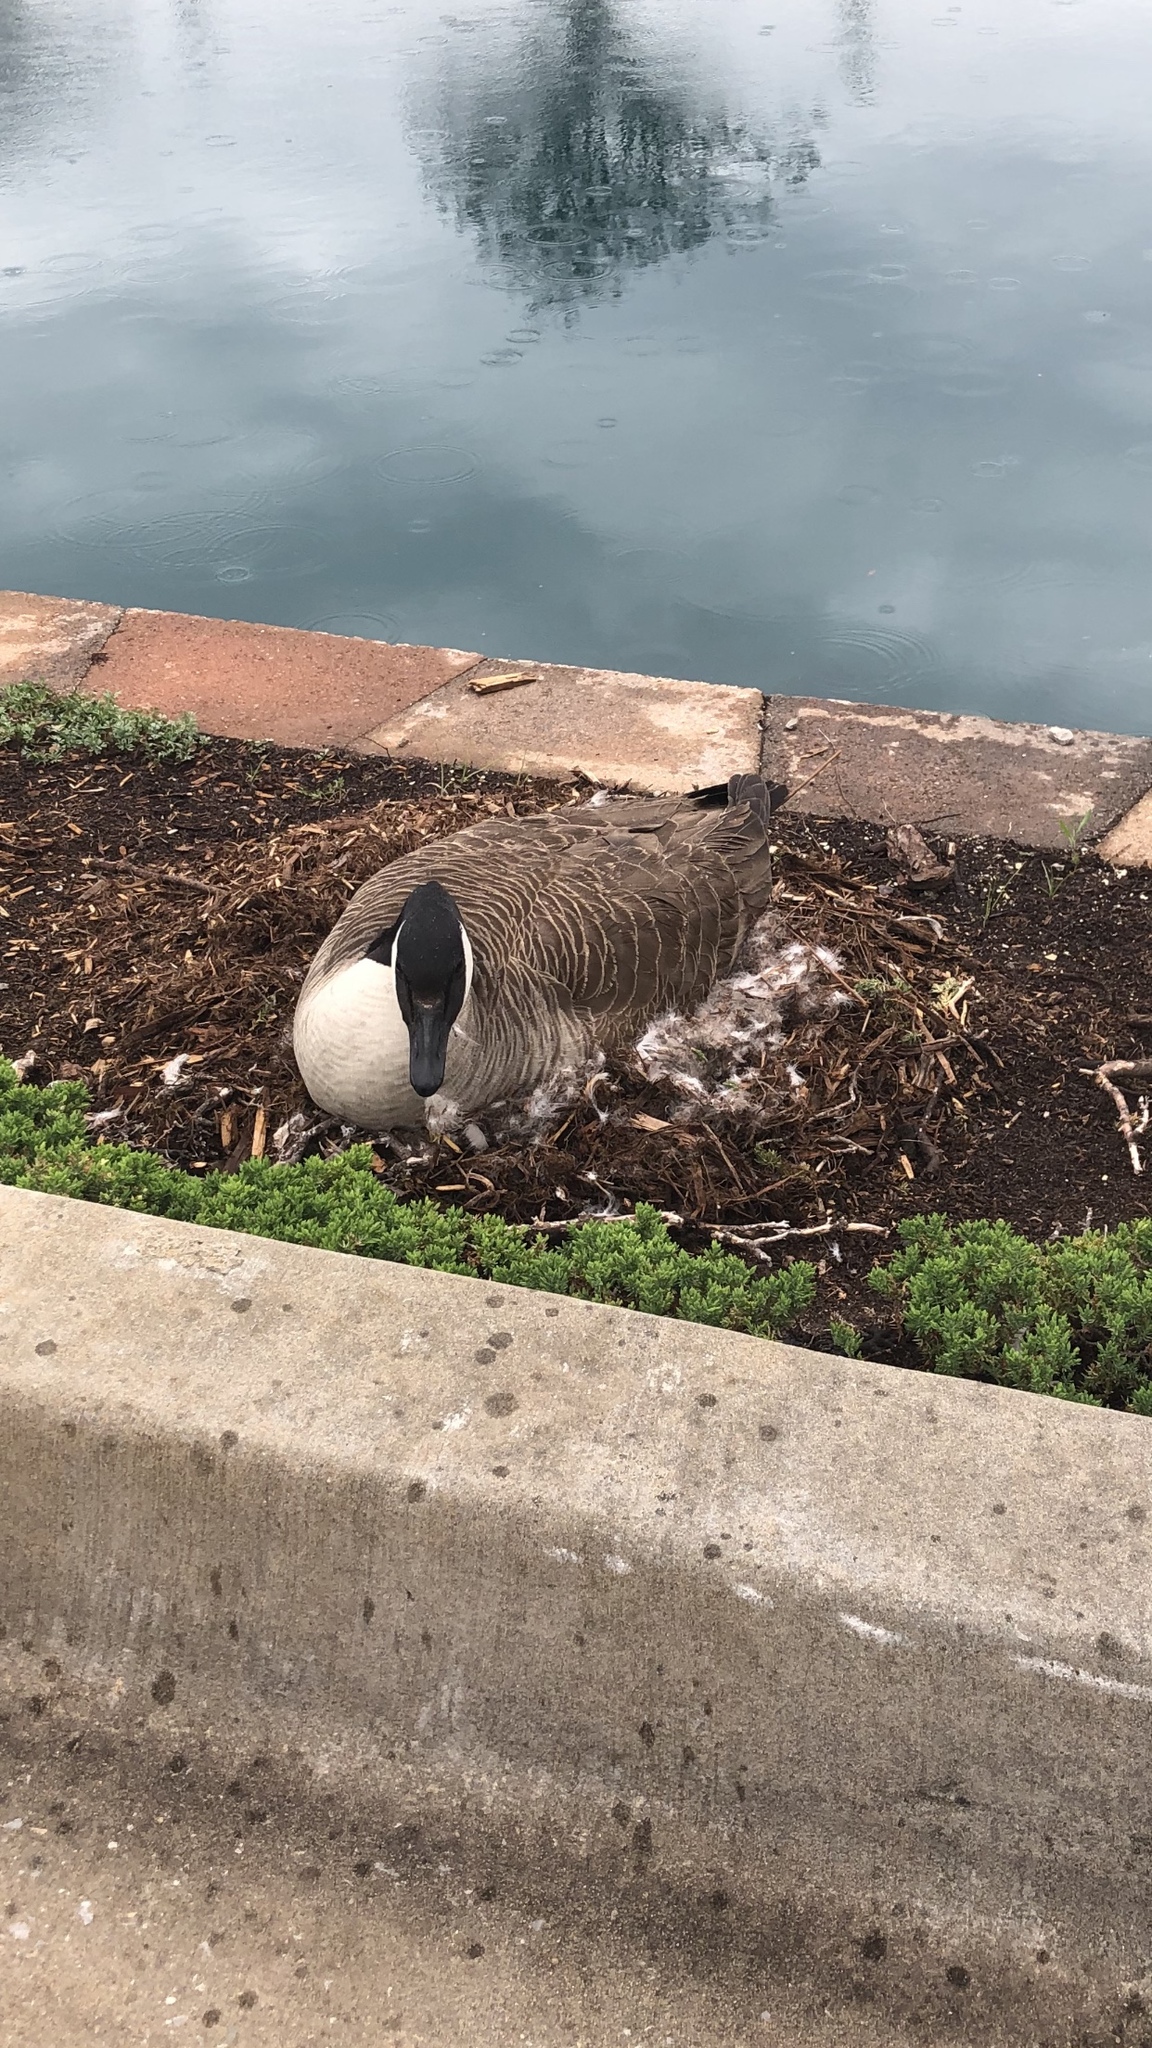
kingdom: Animalia
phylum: Chordata
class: Aves
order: Anseriformes
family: Anatidae
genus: Branta
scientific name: Branta canadensis
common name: Canada goose
